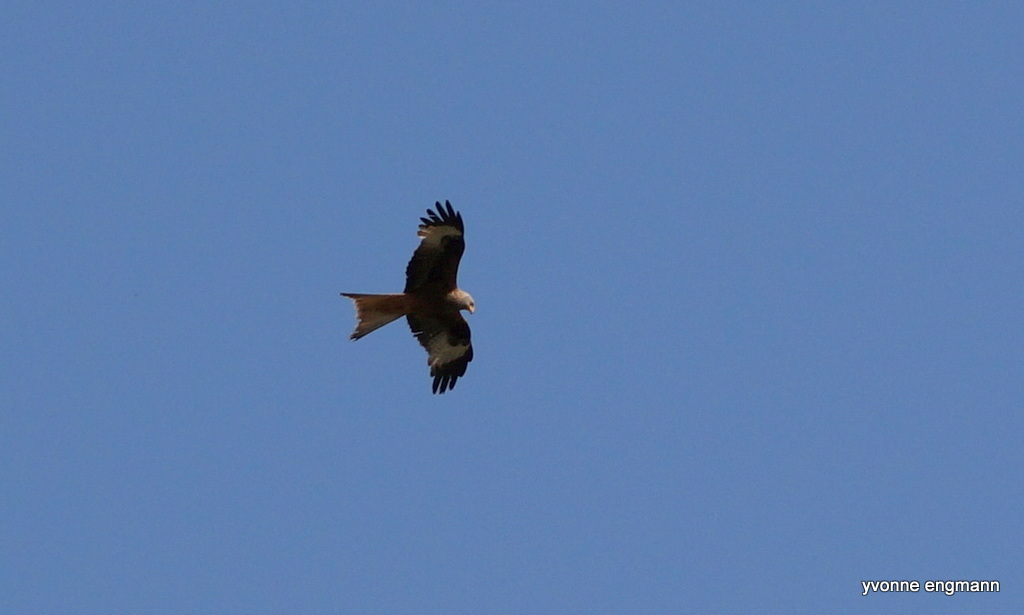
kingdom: Animalia
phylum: Chordata
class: Aves
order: Accipitriformes
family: Accipitridae
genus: Milvus
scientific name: Milvus milvus
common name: Red kite
